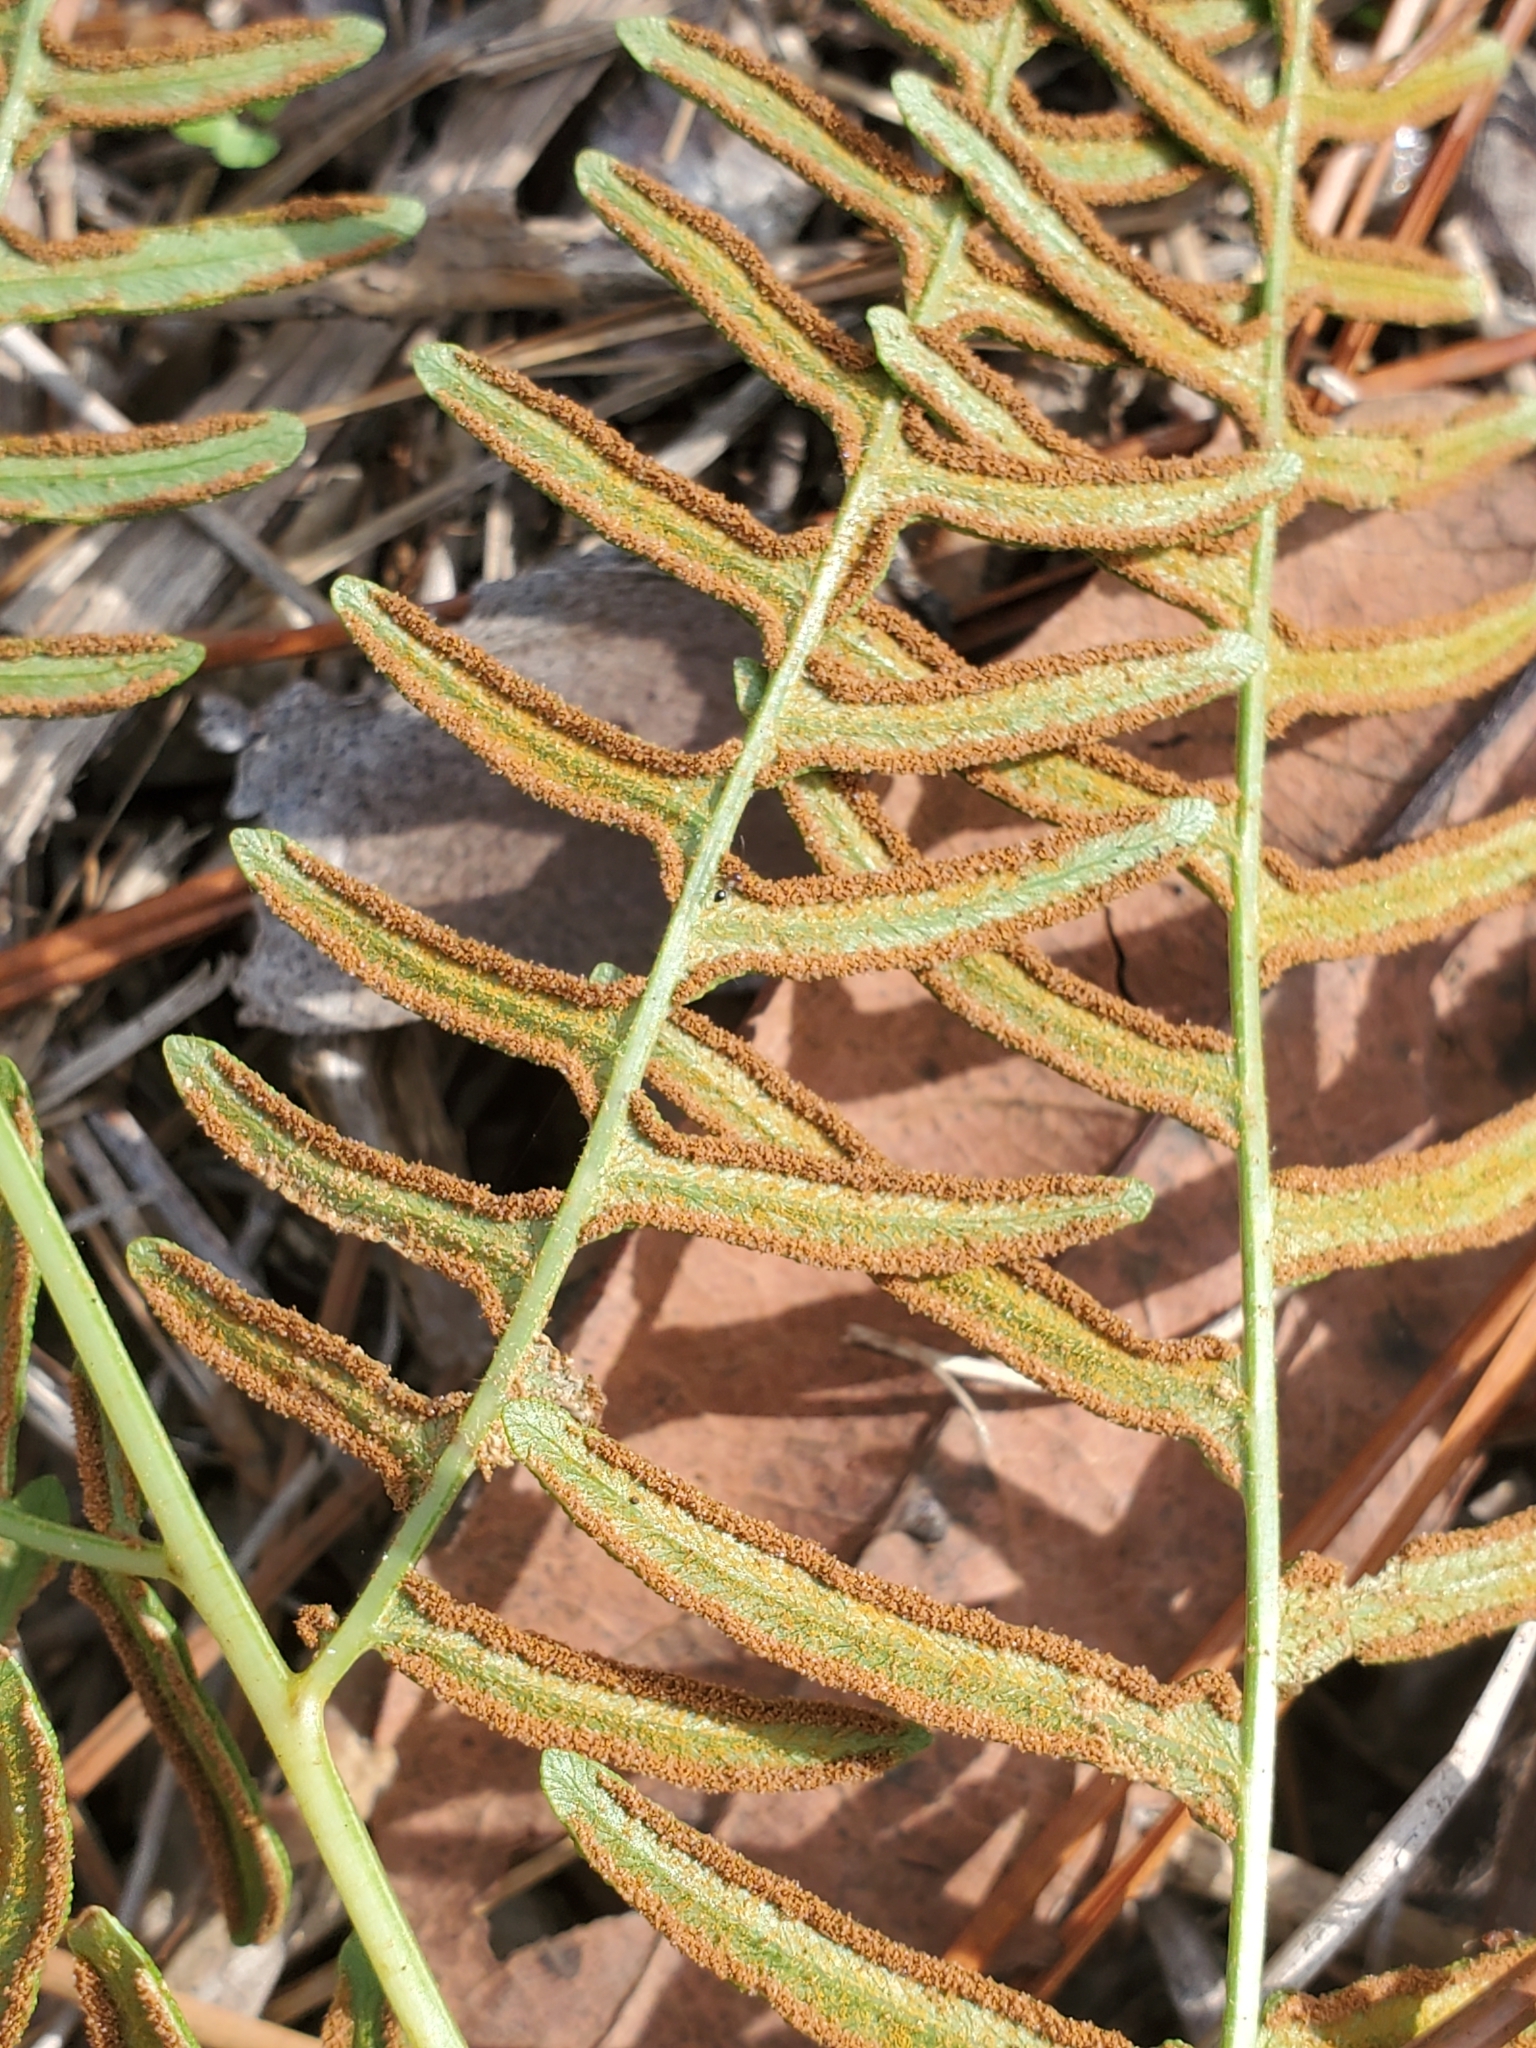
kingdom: Plantae
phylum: Tracheophyta
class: Polypodiopsida
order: Polypodiales
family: Dennstaedtiaceae
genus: Pteridium
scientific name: Pteridium aquilinum
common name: Bracken
